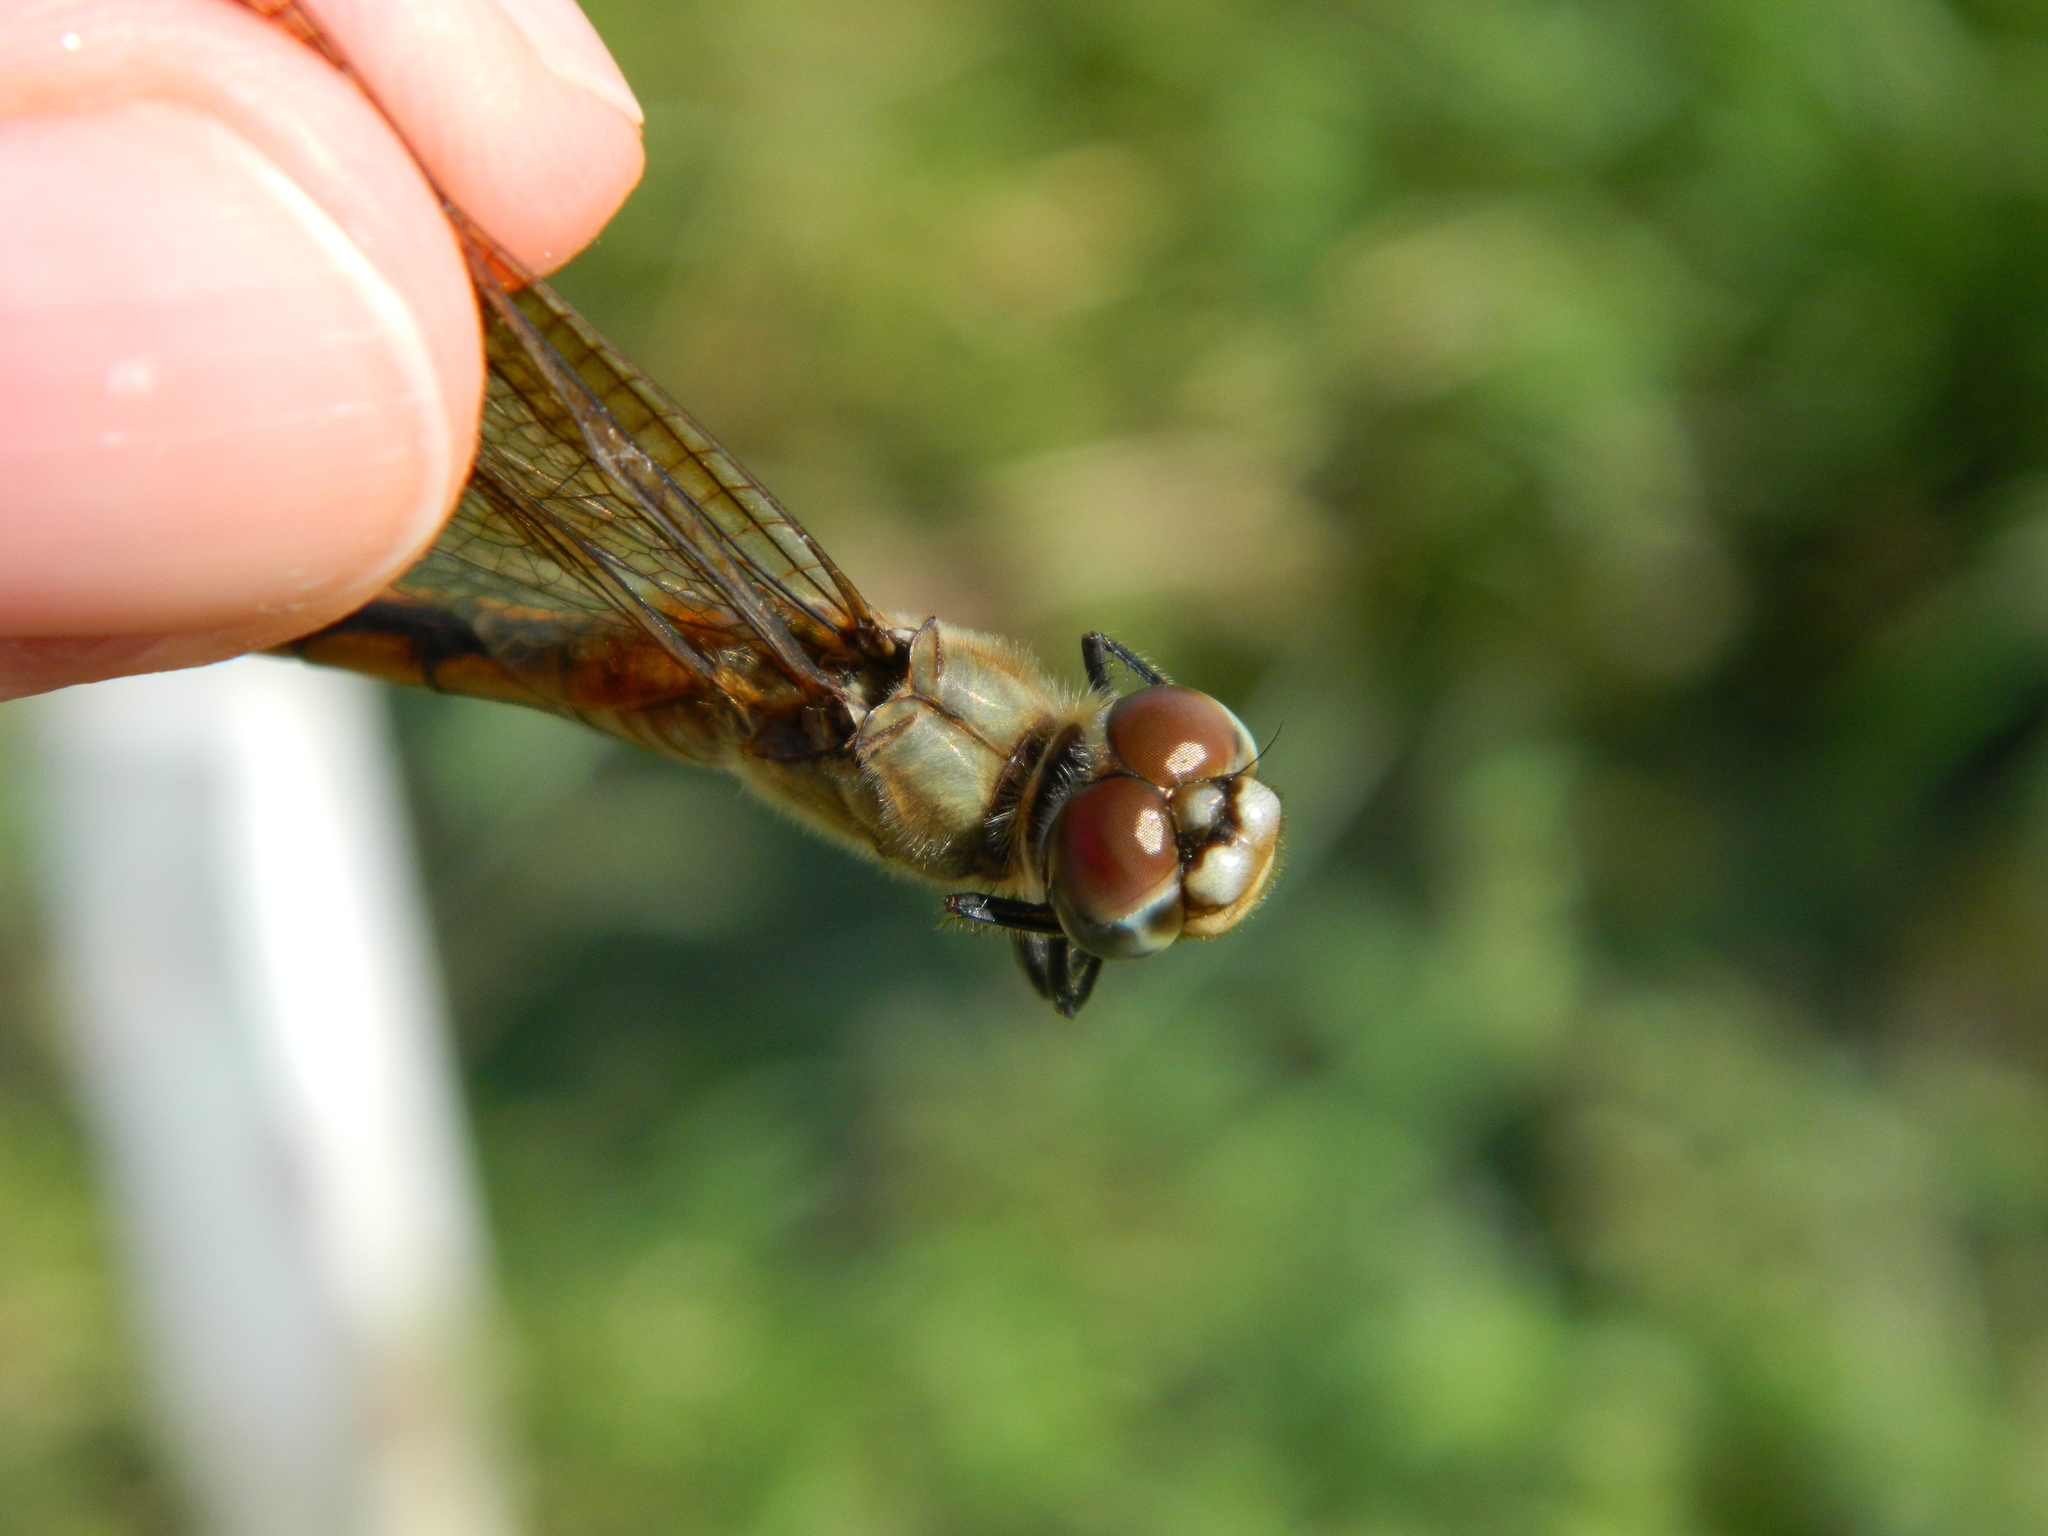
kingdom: Animalia
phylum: Arthropoda
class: Insecta
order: Odonata
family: Libellulidae
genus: Brachymesia
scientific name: Brachymesia herbida
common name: Tawny pennant
